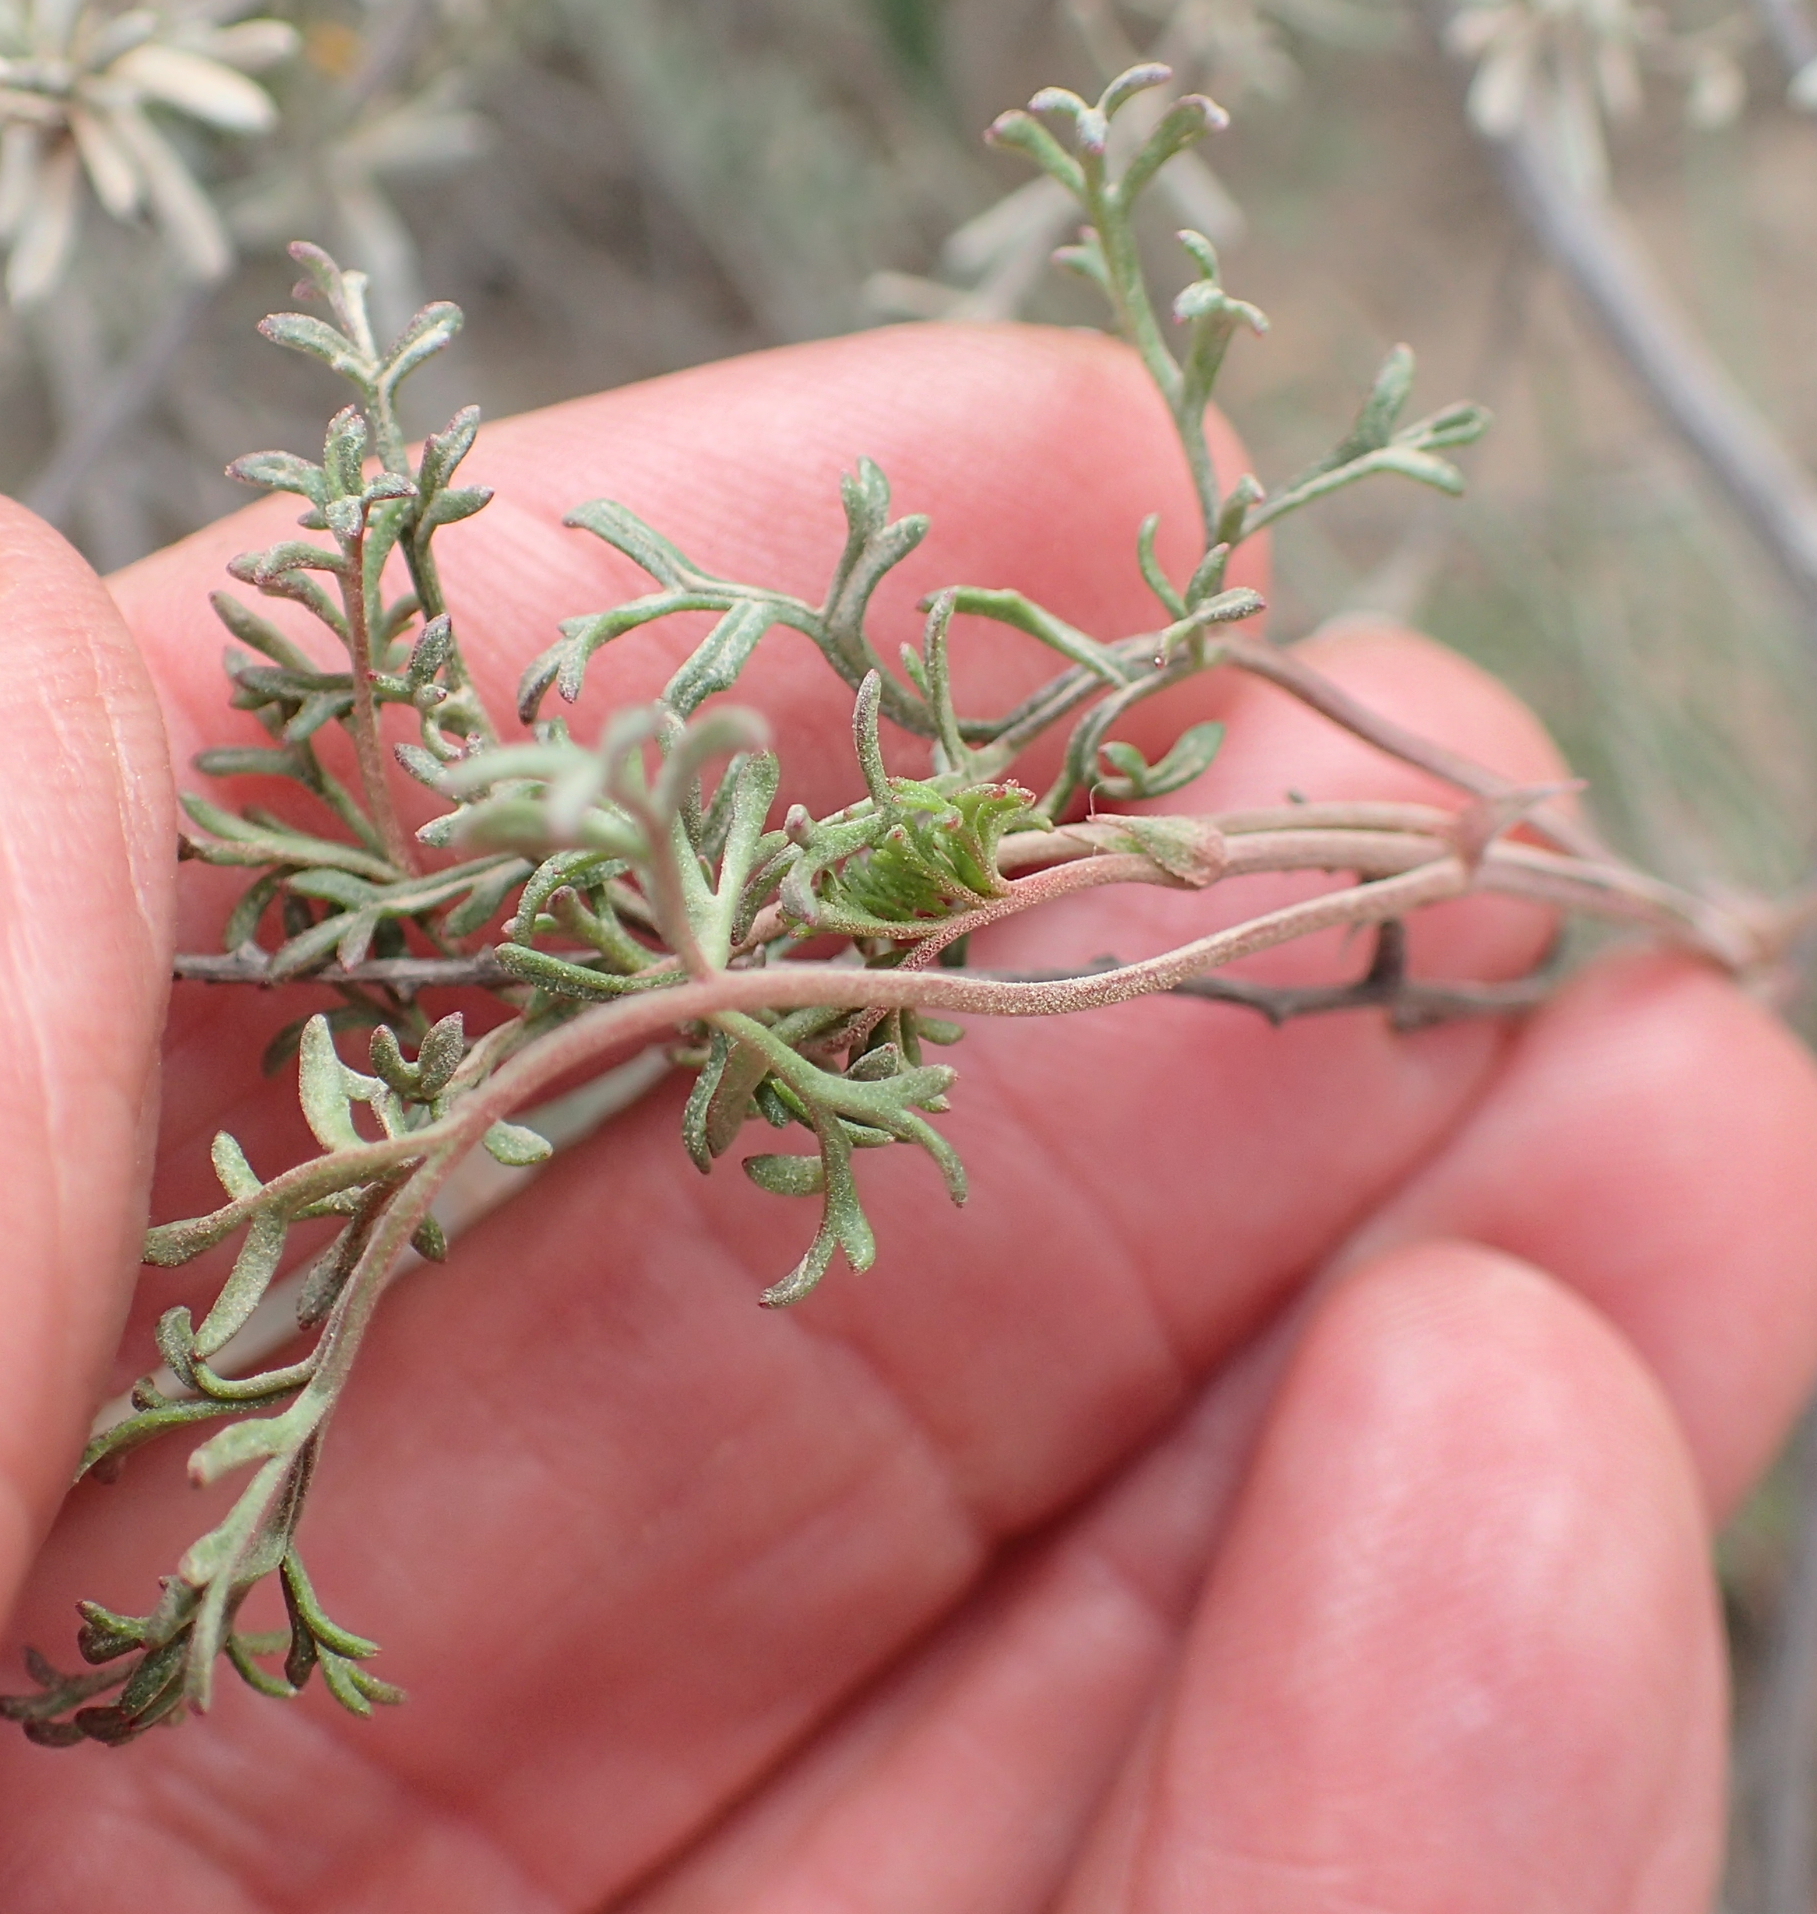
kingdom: Plantae
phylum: Tracheophyta
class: Magnoliopsida
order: Geraniales
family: Geraniaceae
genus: Pelargonium
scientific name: Pelargonium caucalifolium
